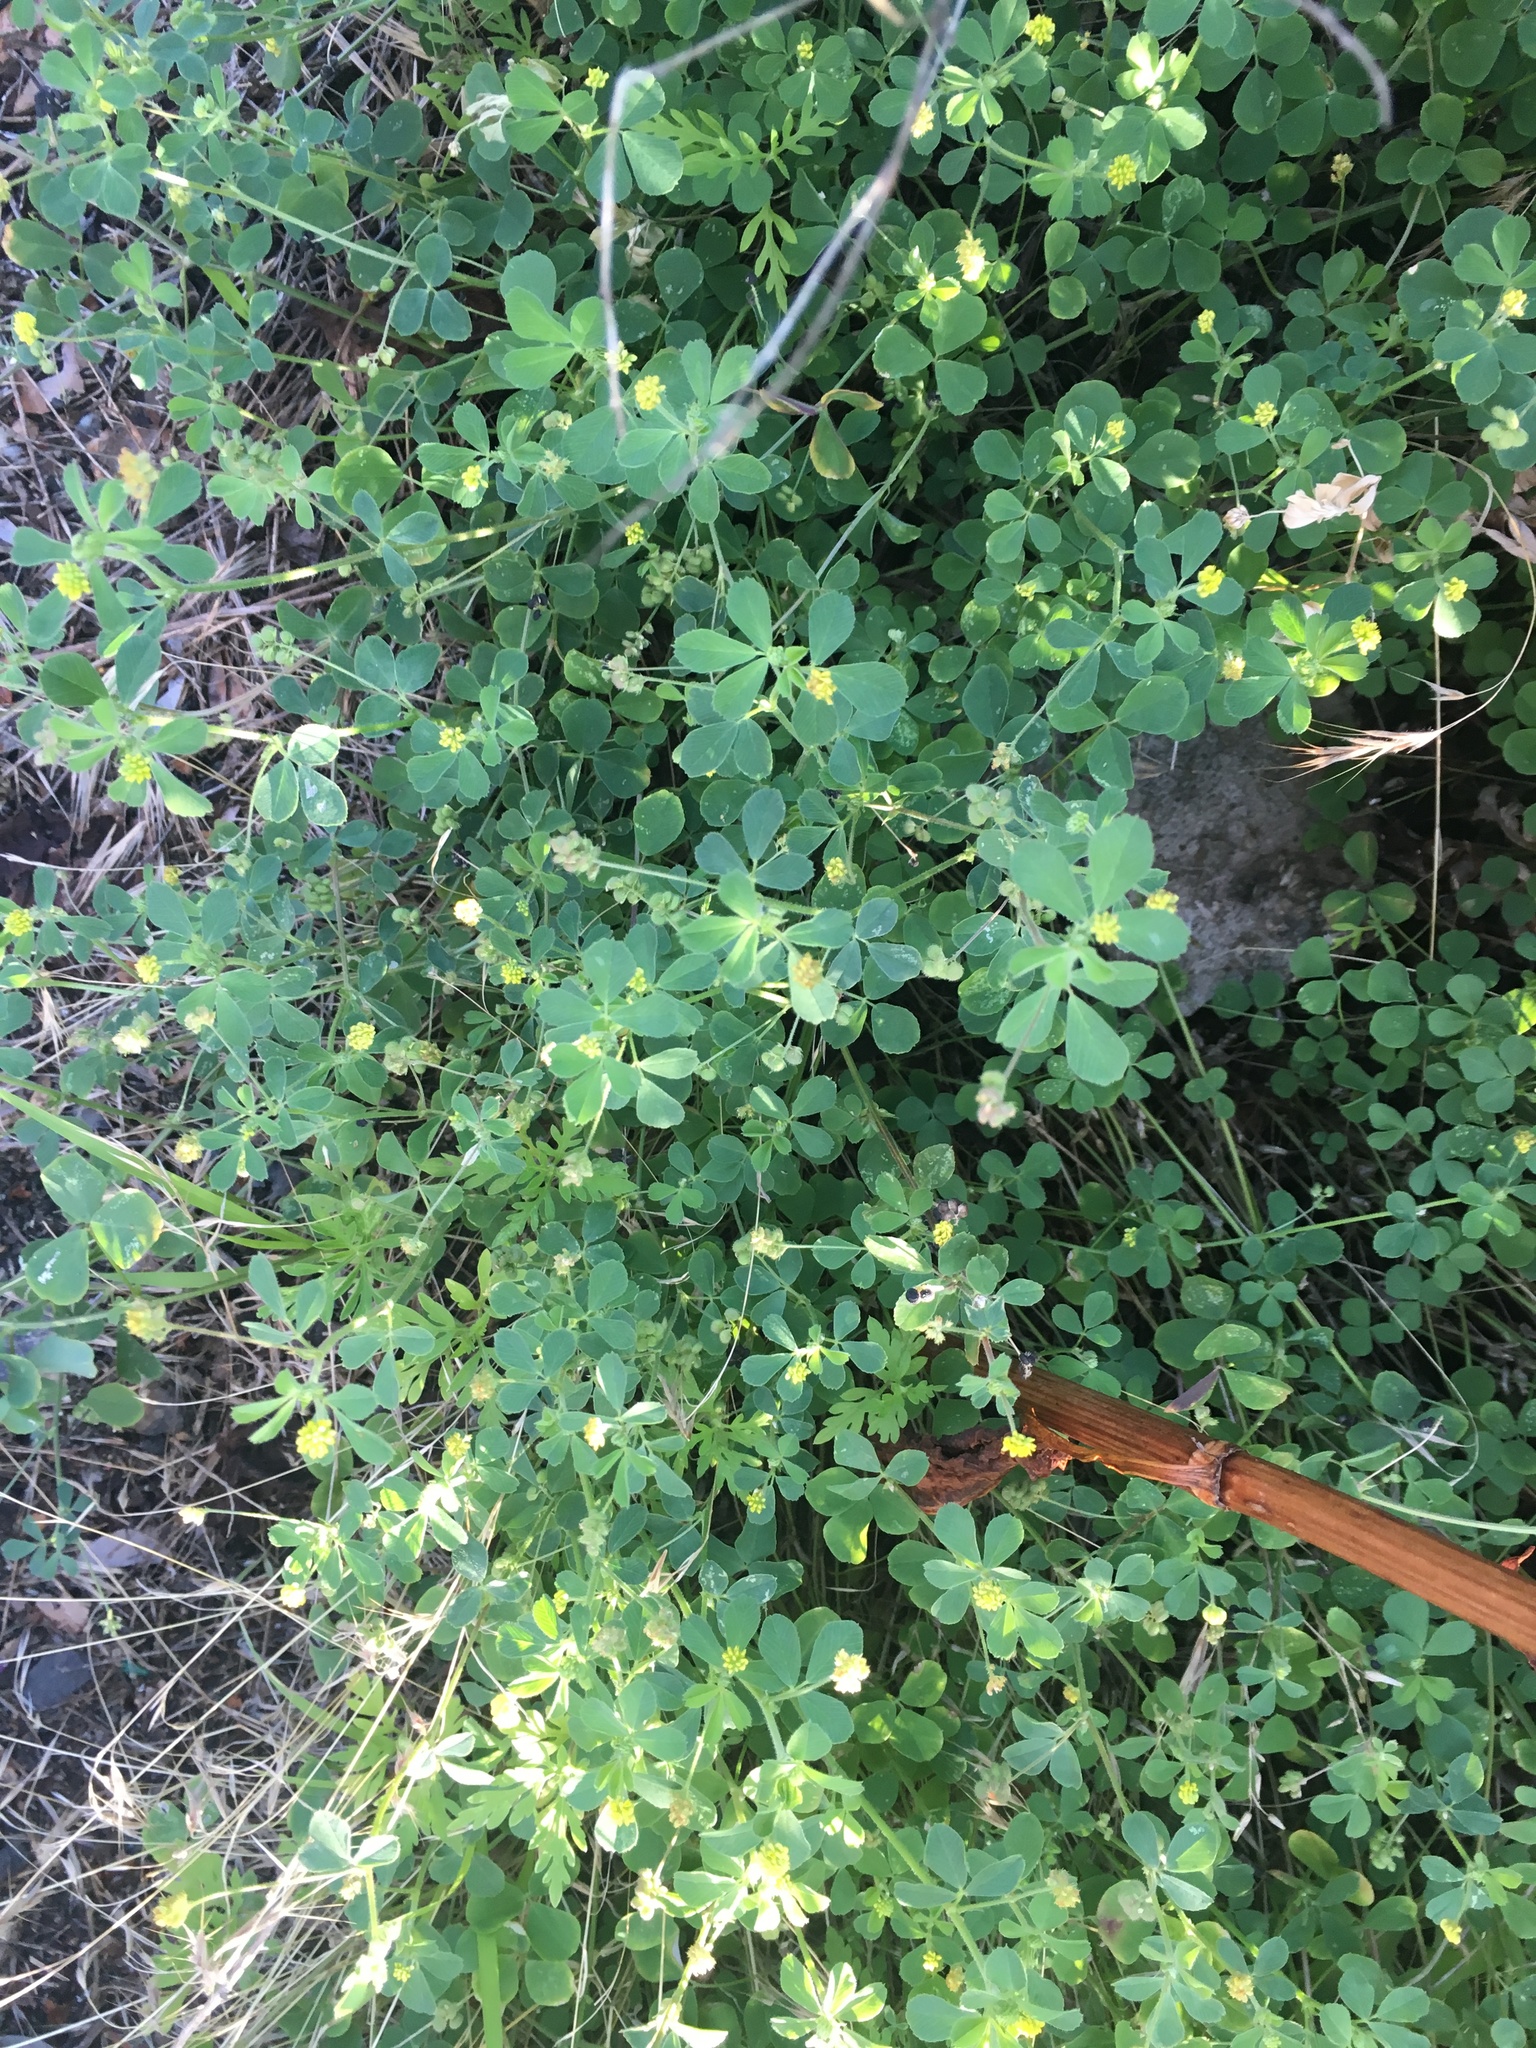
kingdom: Plantae
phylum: Tracheophyta
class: Magnoliopsida
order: Fabales
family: Fabaceae
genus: Medicago
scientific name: Medicago lupulina
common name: Black medick
